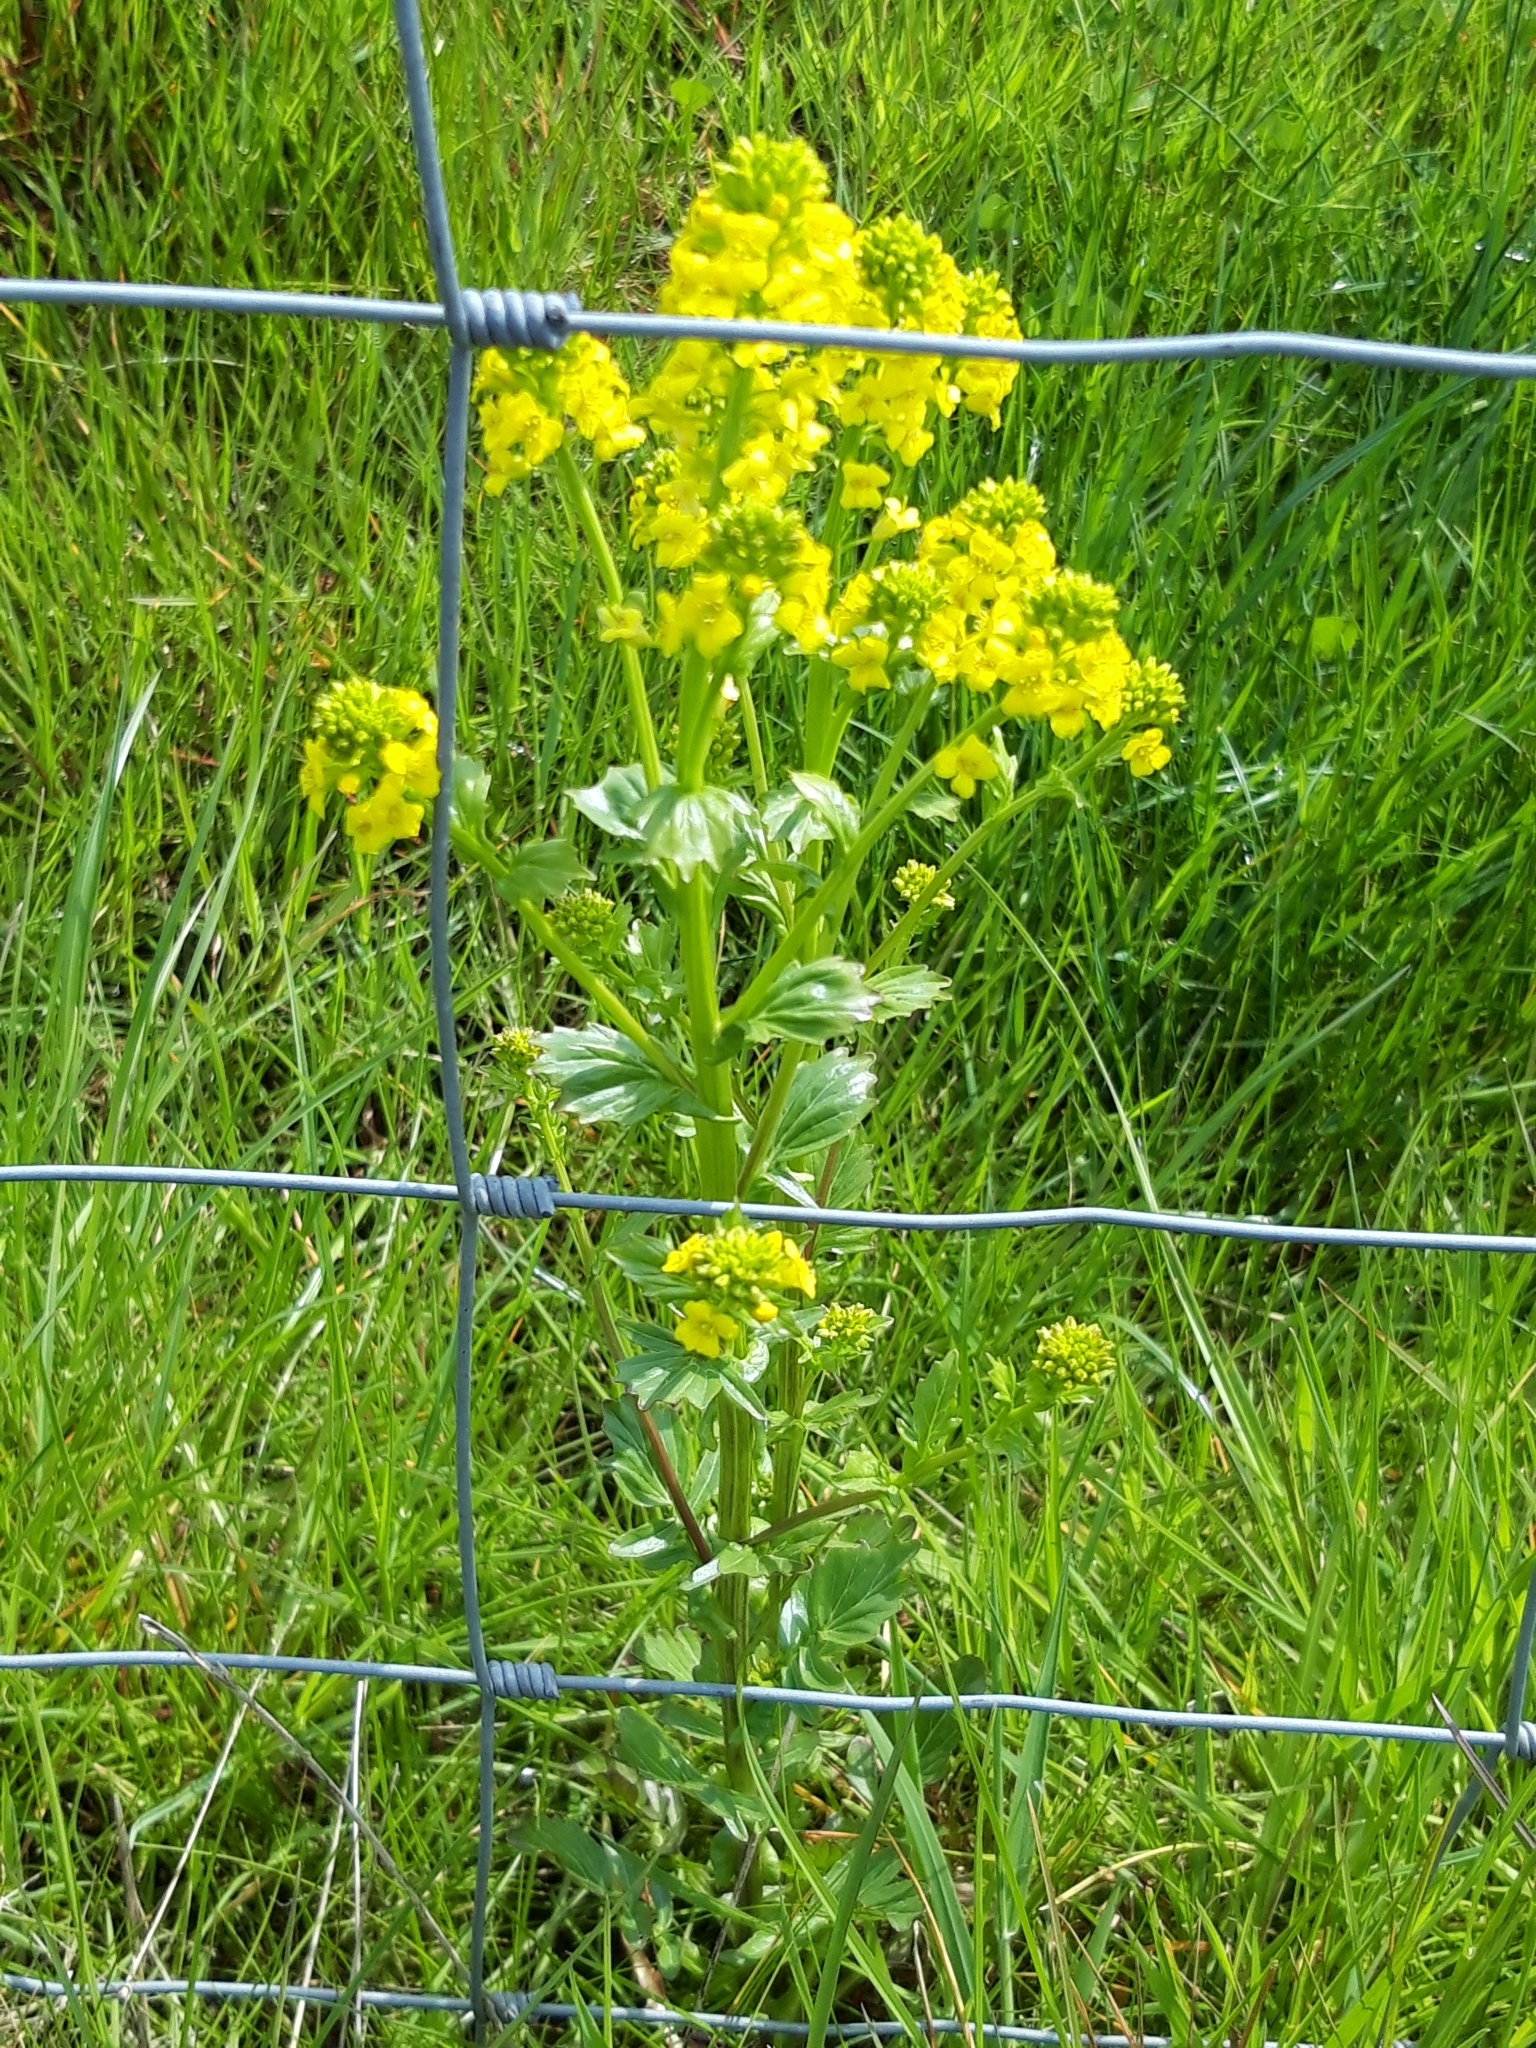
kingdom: Plantae
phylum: Tracheophyta
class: Magnoliopsida
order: Brassicales
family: Brassicaceae
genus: Barbarea
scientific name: Barbarea vulgaris
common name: Cressy-greens
